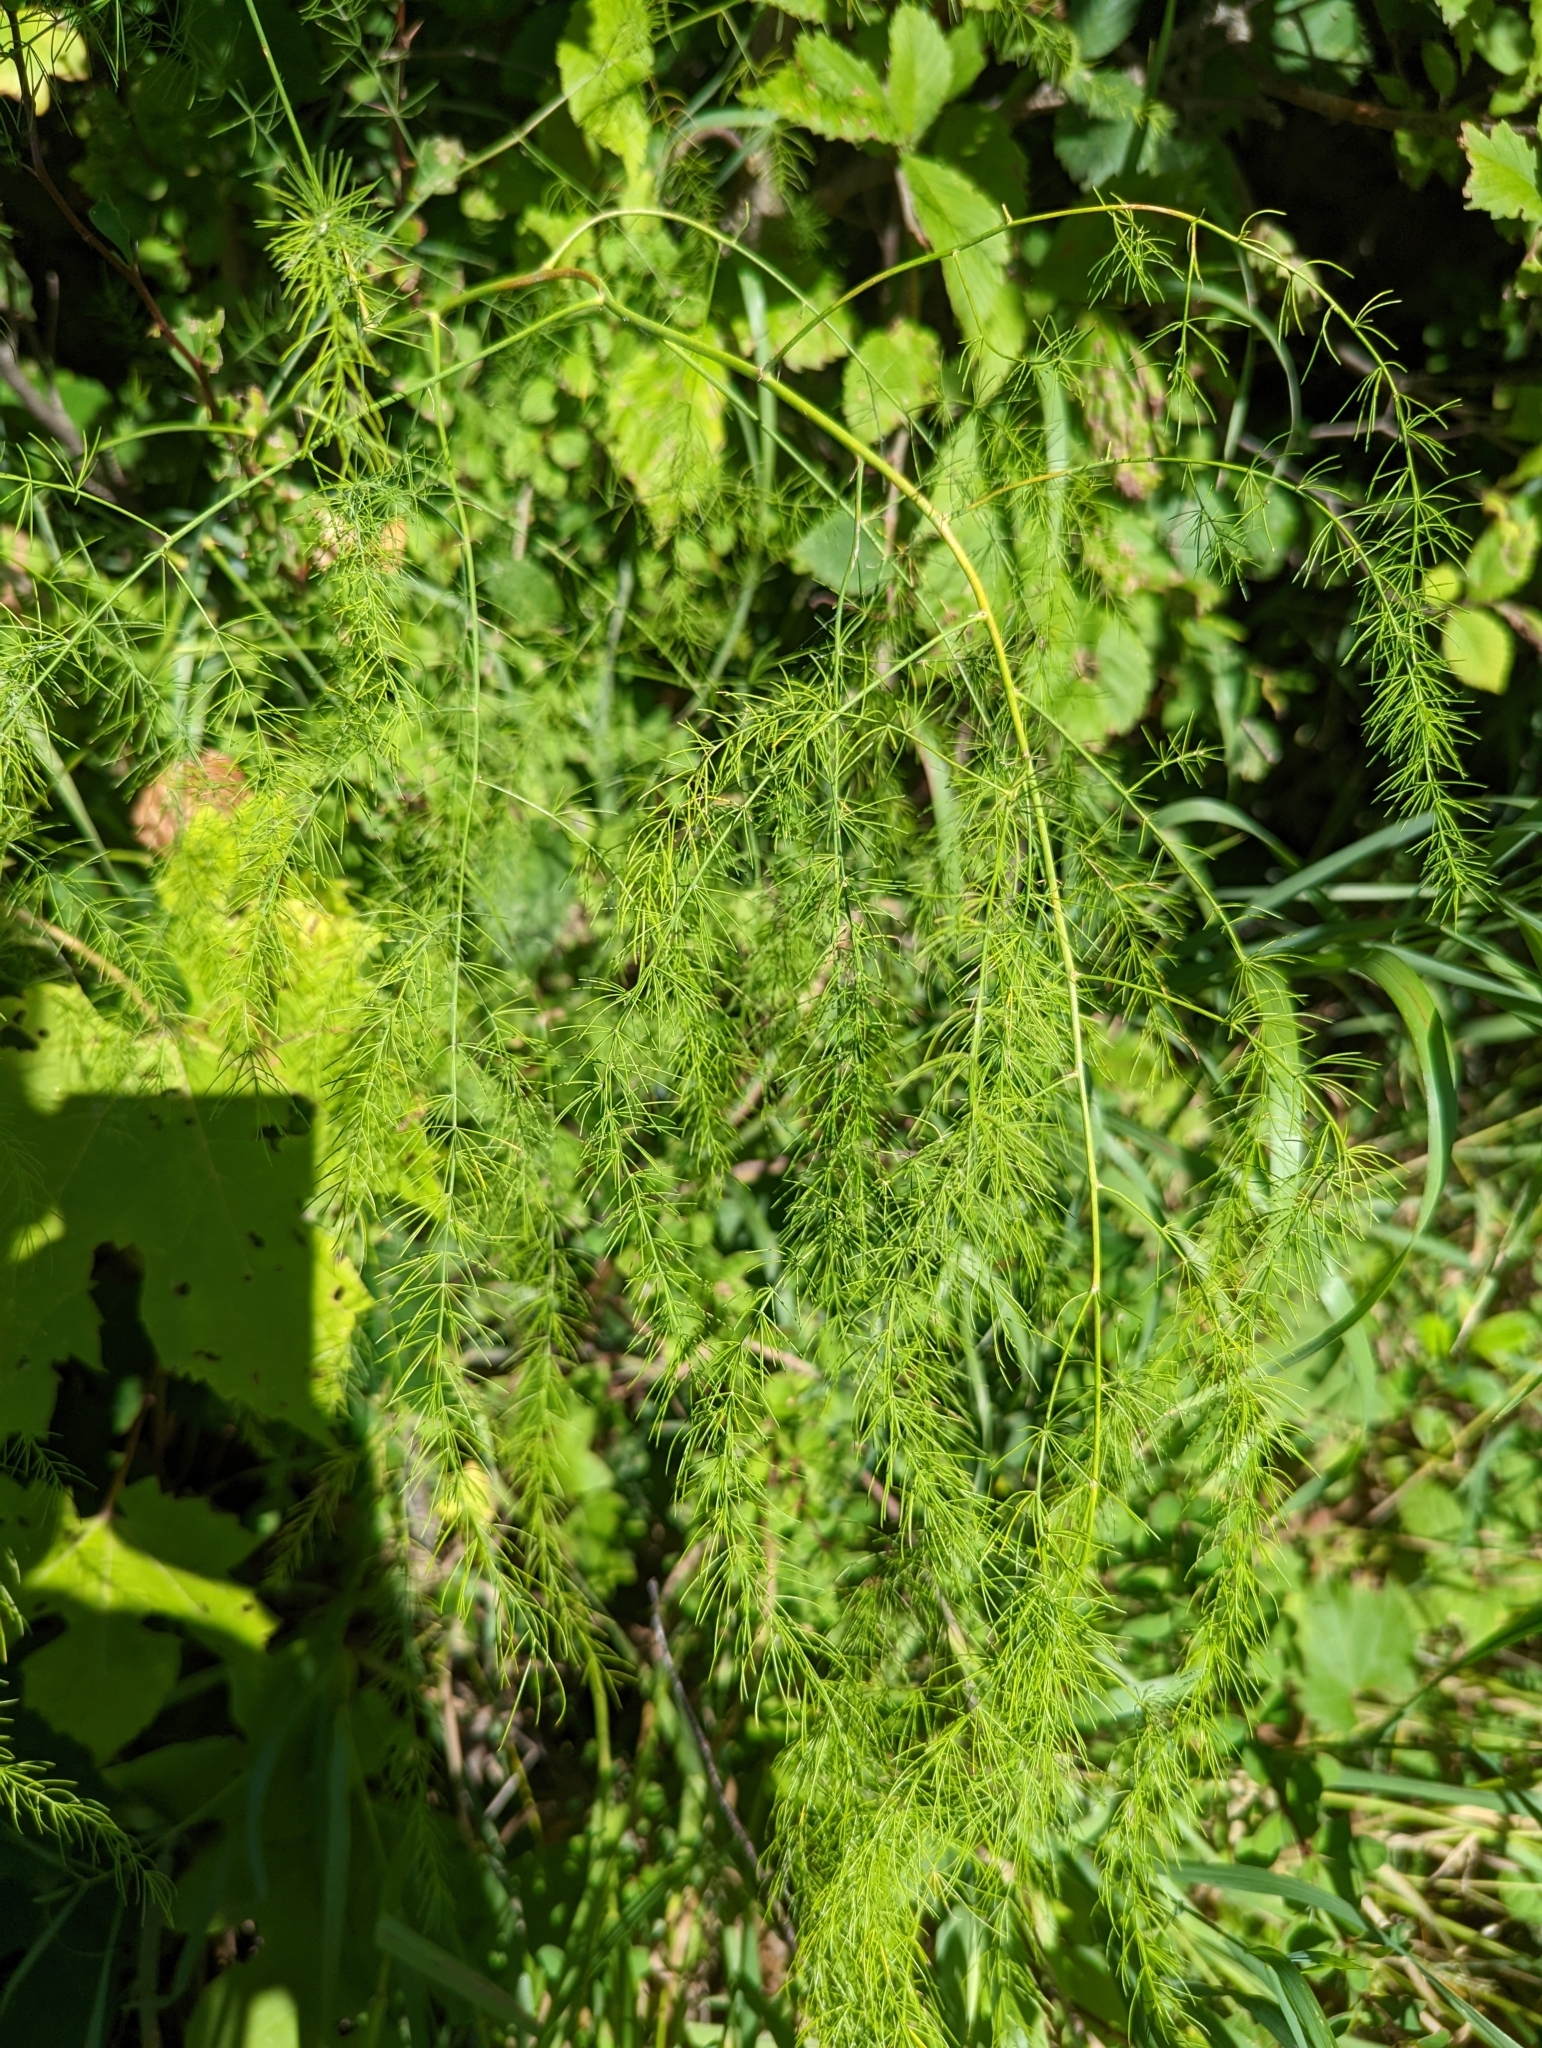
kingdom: Plantae
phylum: Tracheophyta
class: Liliopsida
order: Asparagales
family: Asparagaceae
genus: Asparagus
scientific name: Asparagus officinalis
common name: Garden asparagus
